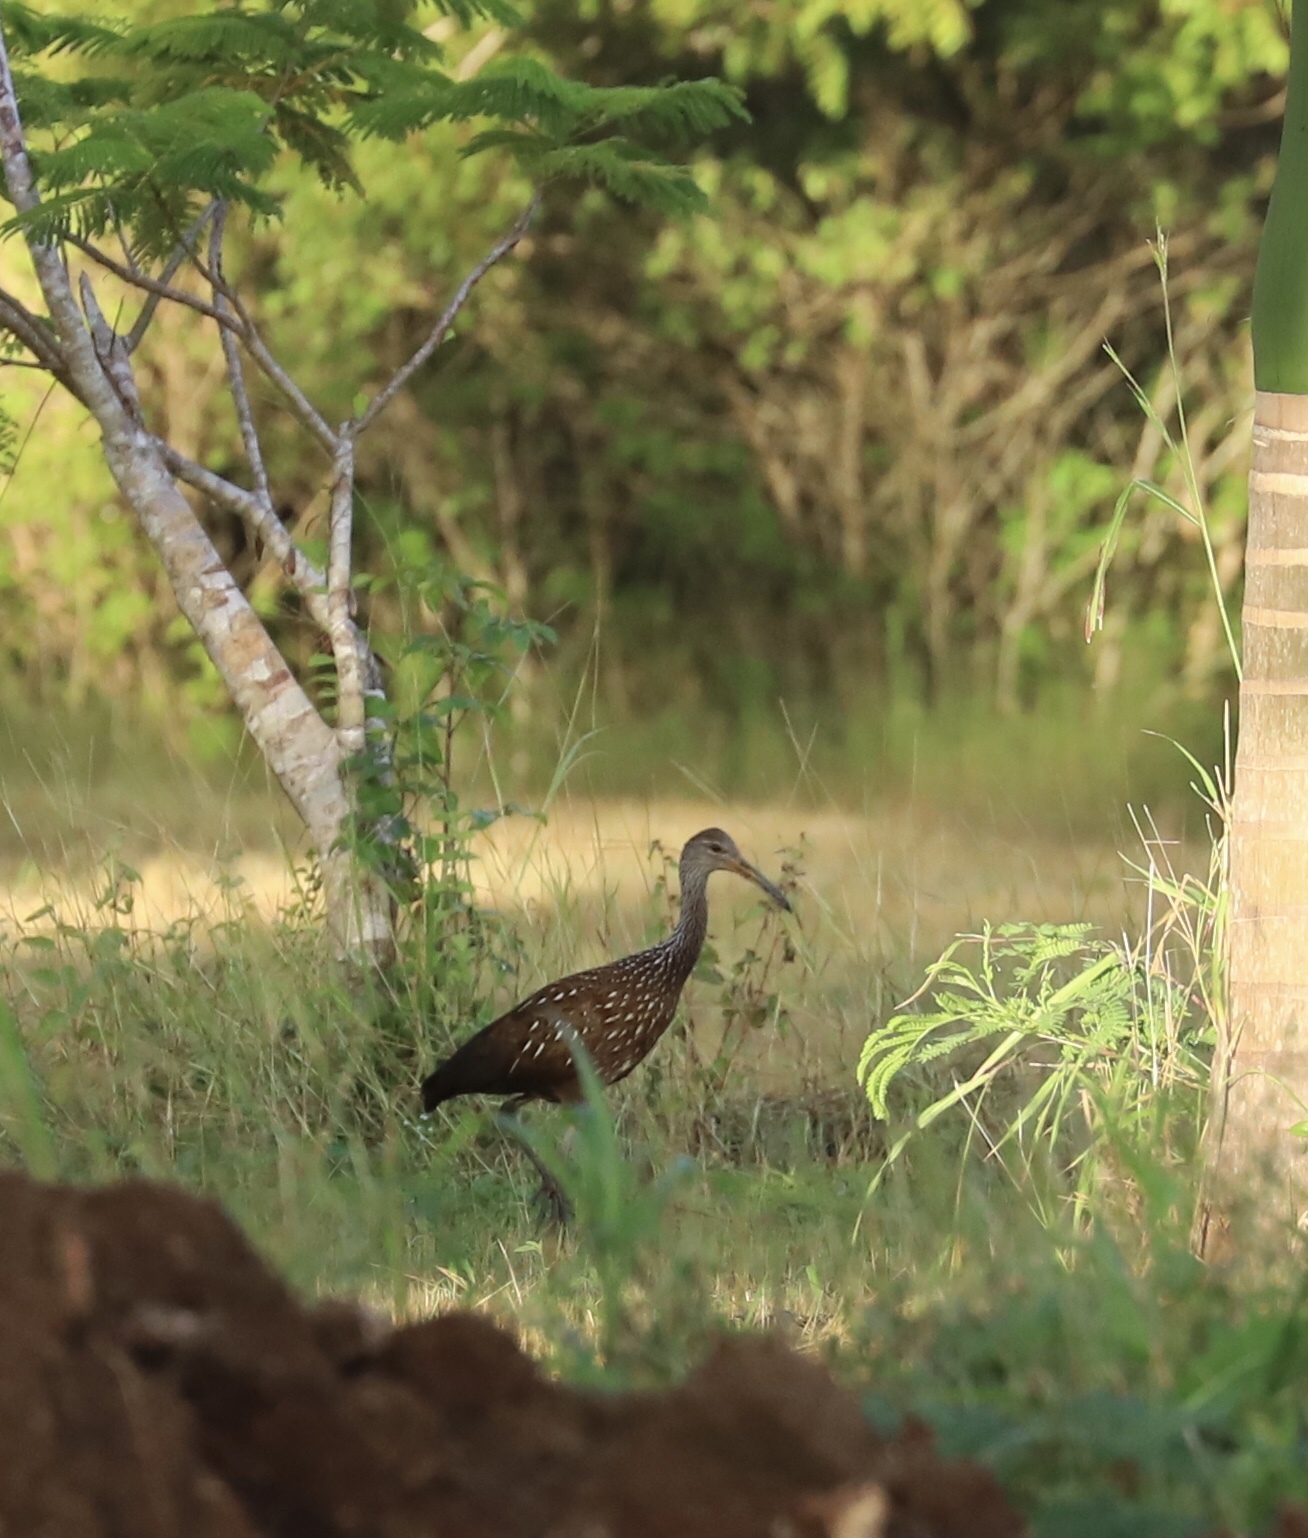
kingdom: Animalia
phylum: Chordata
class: Aves
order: Gruiformes
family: Aramidae
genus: Aramus
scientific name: Aramus guarauna
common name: Limpkin
